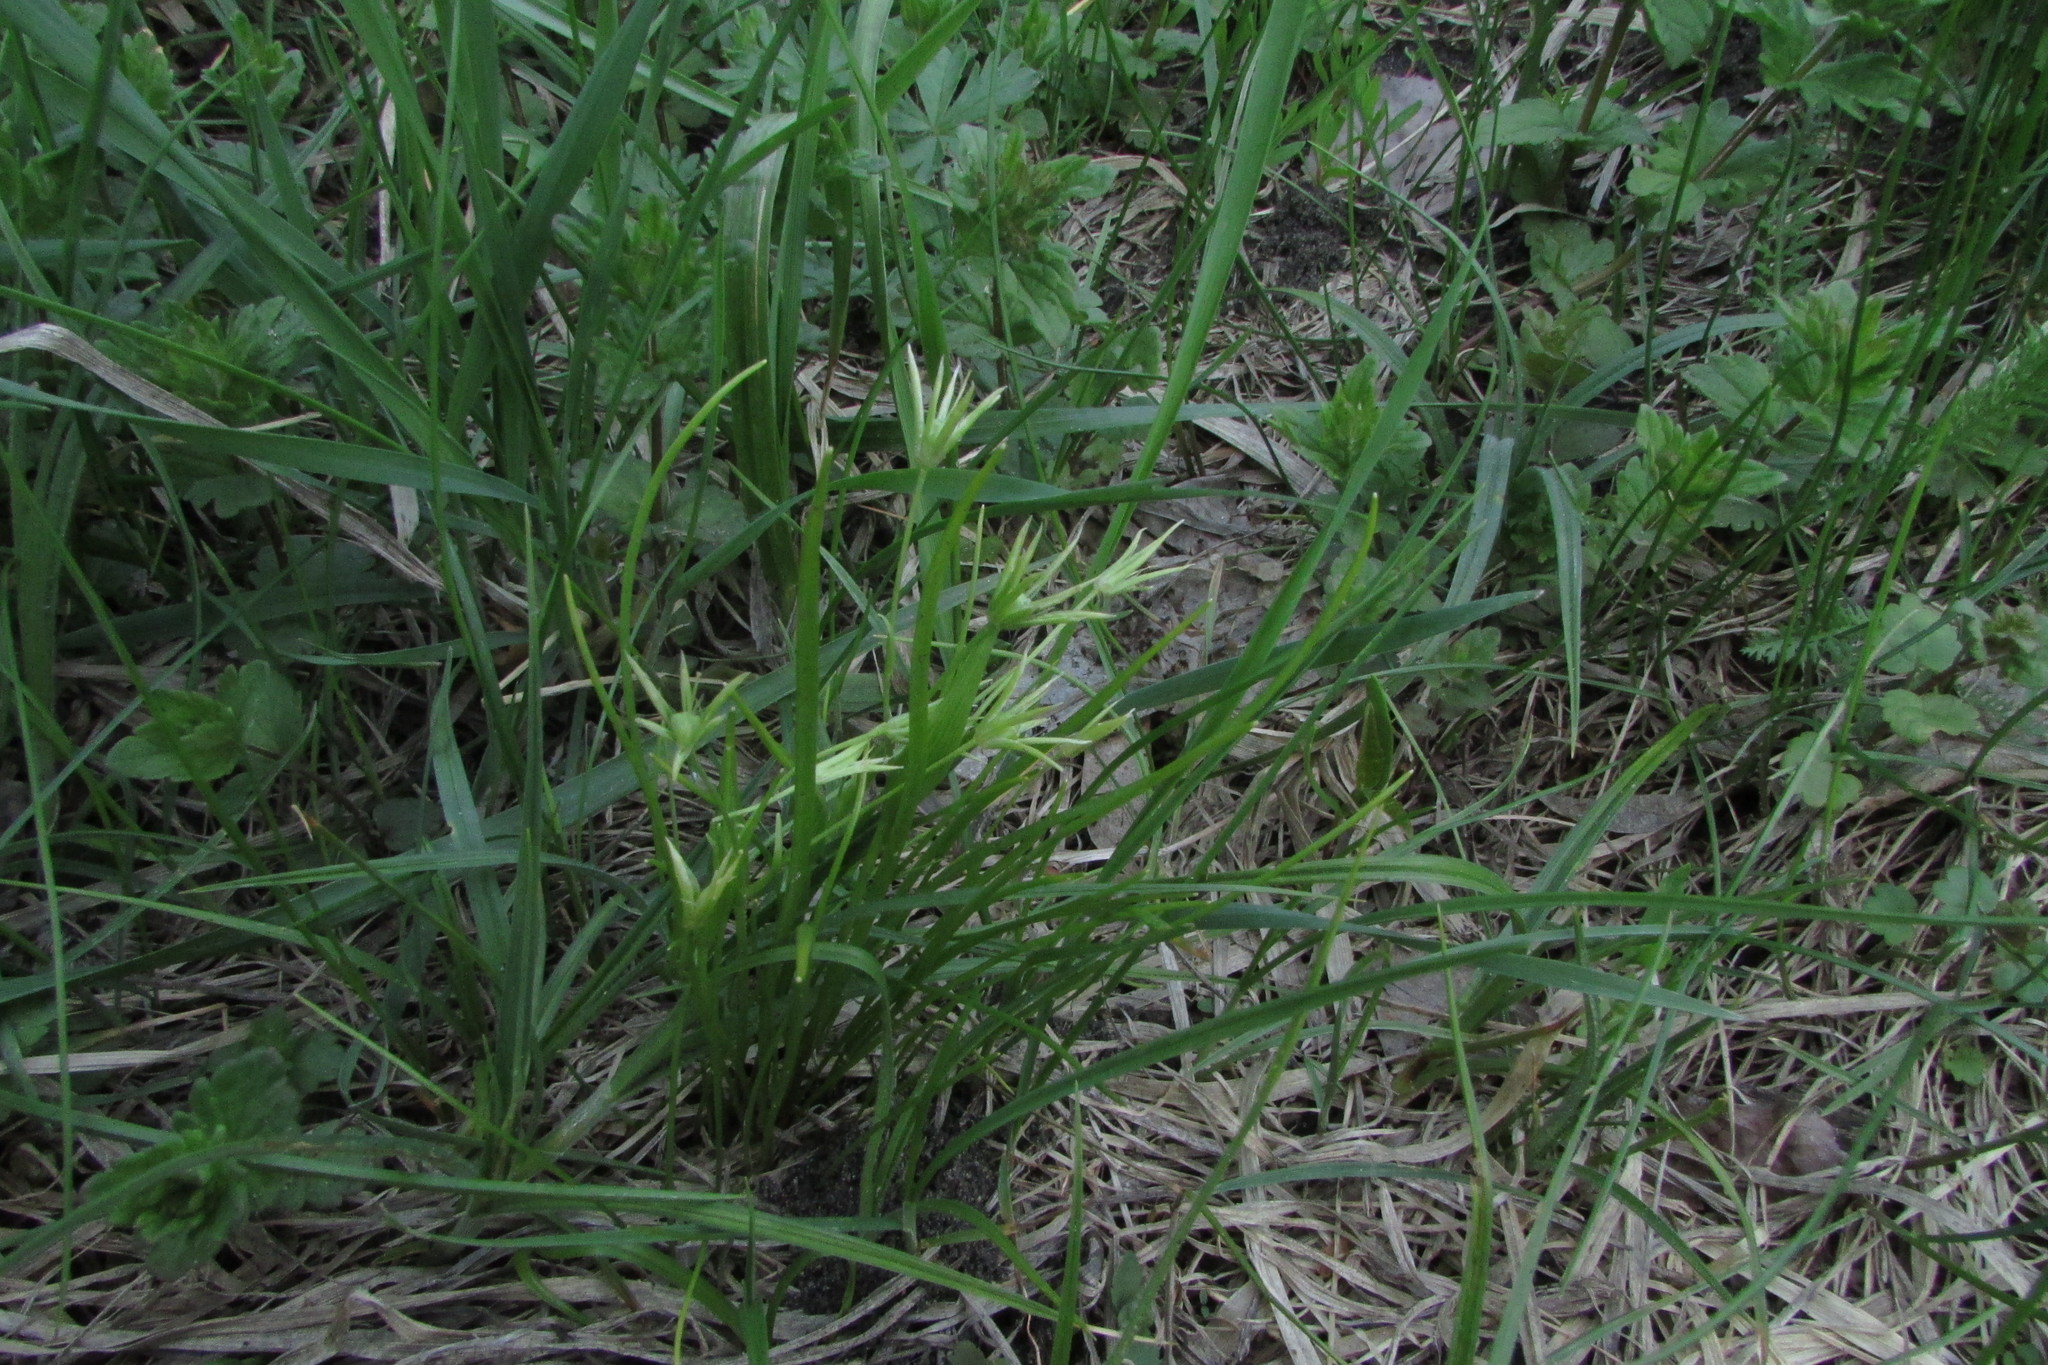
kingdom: Plantae
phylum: Tracheophyta
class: Liliopsida
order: Liliales
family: Liliaceae
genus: Gagea
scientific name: Gagea minima
